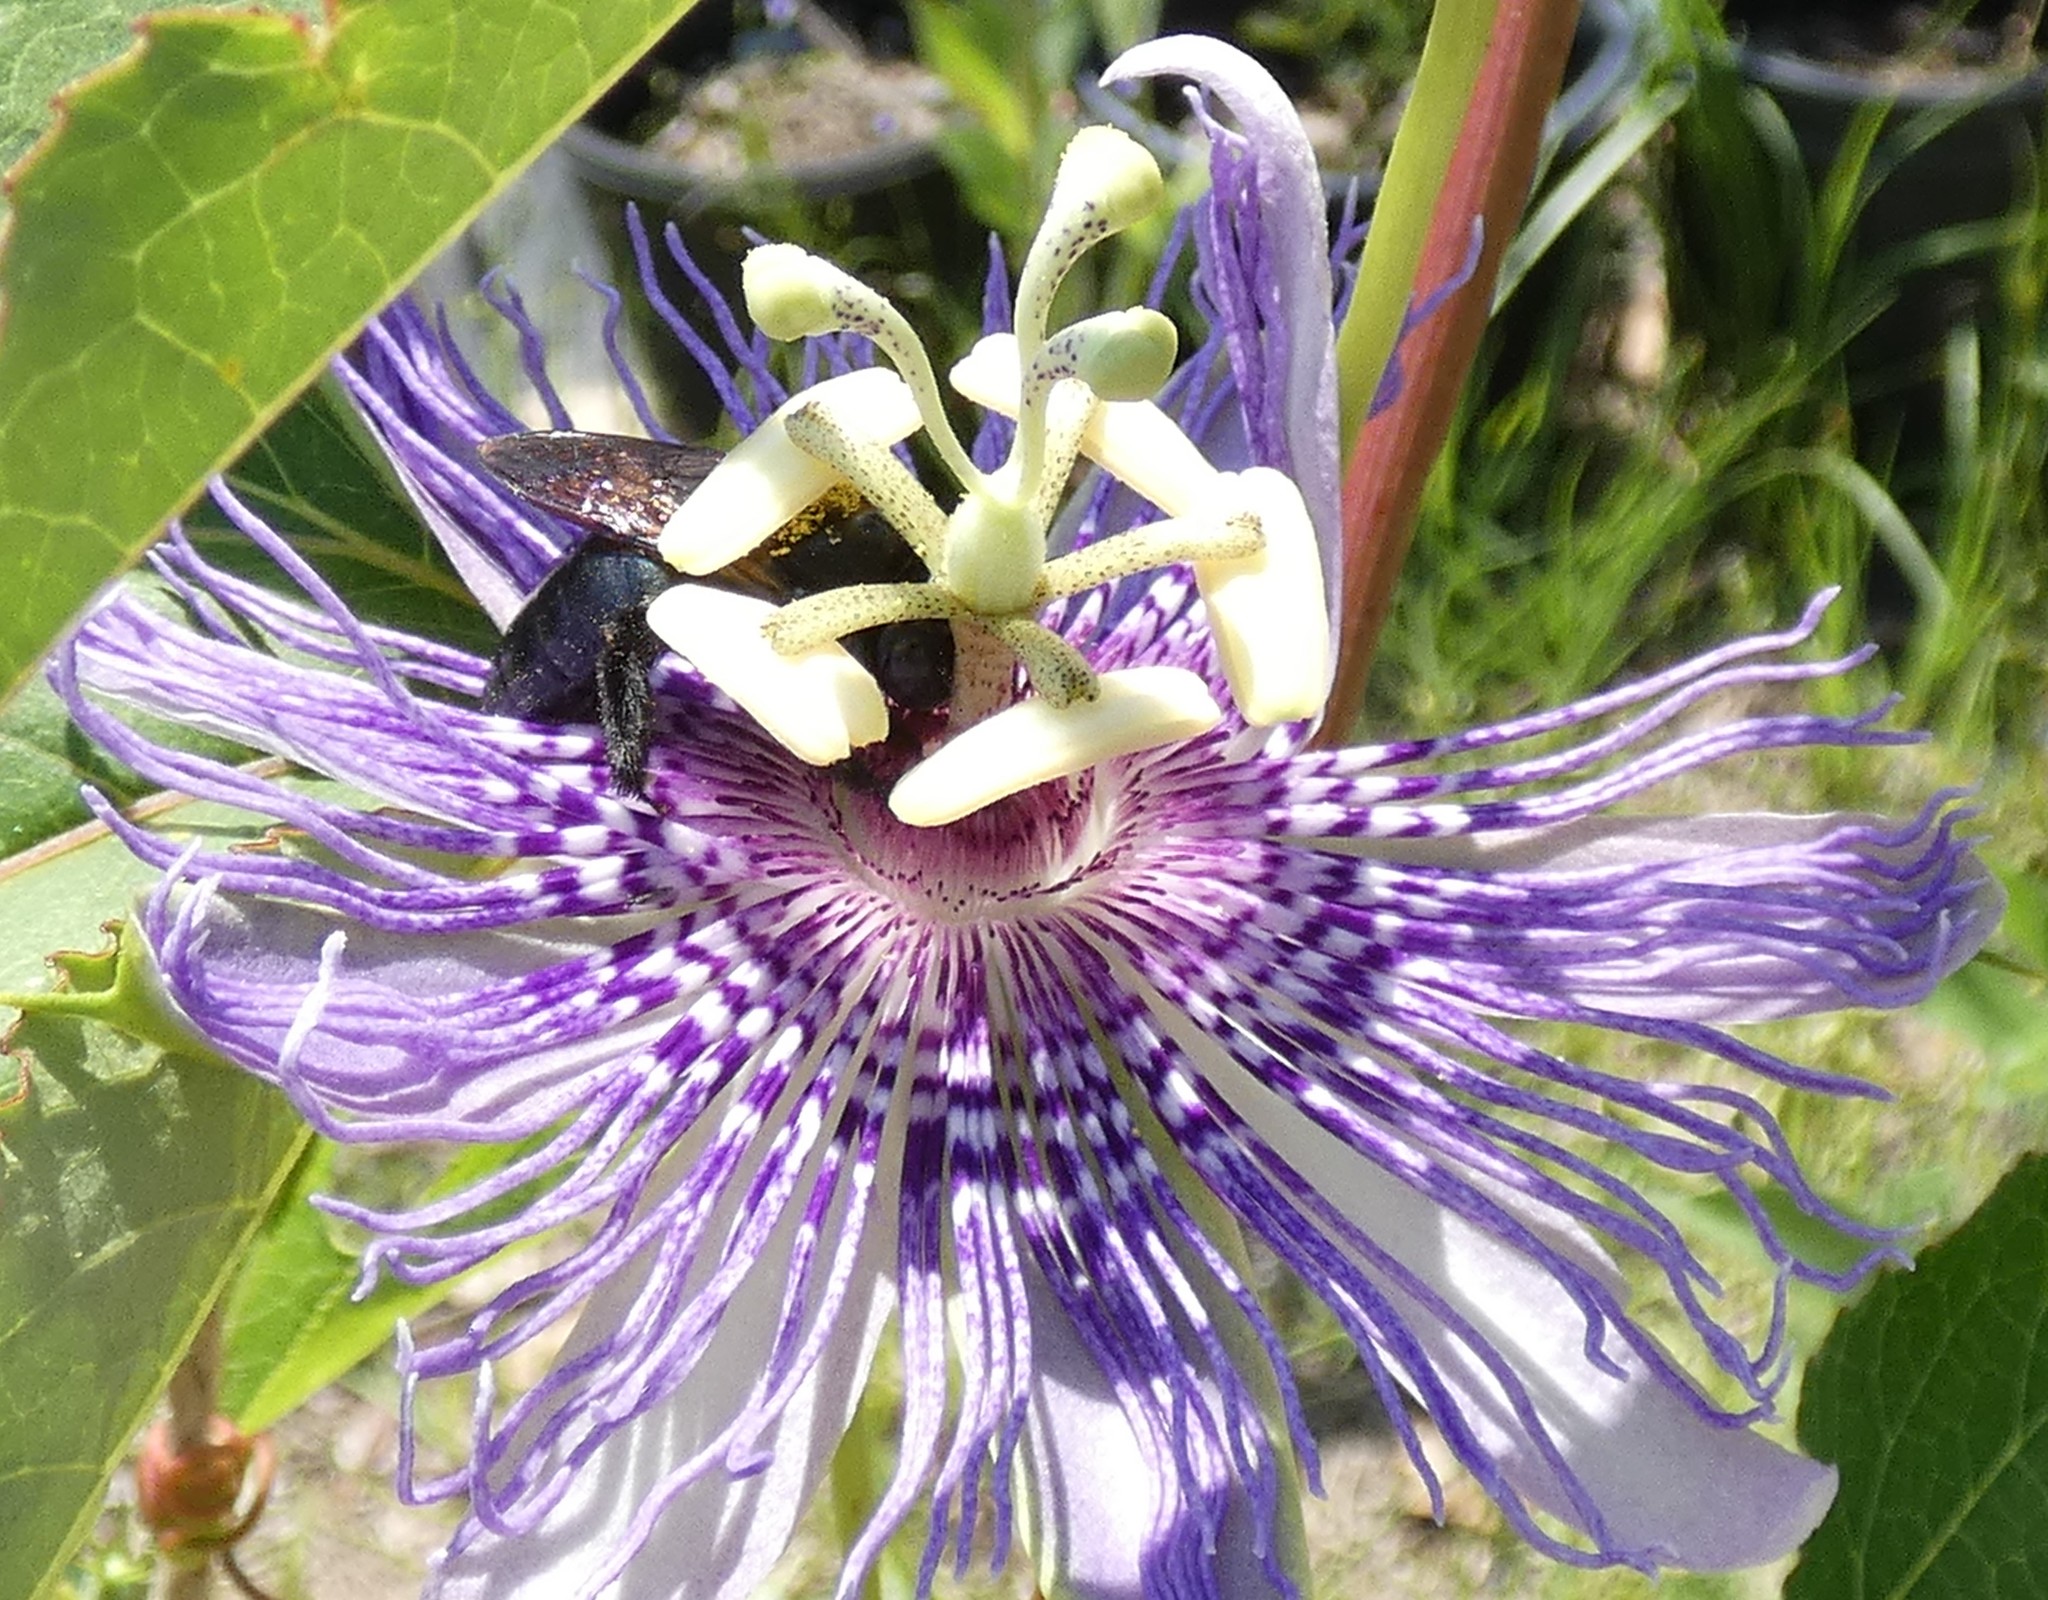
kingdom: Animalia
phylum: Arthropoda
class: Insecta
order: Hymenoptera
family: Apidae
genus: Xylocopa
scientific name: Xylocopa micans
